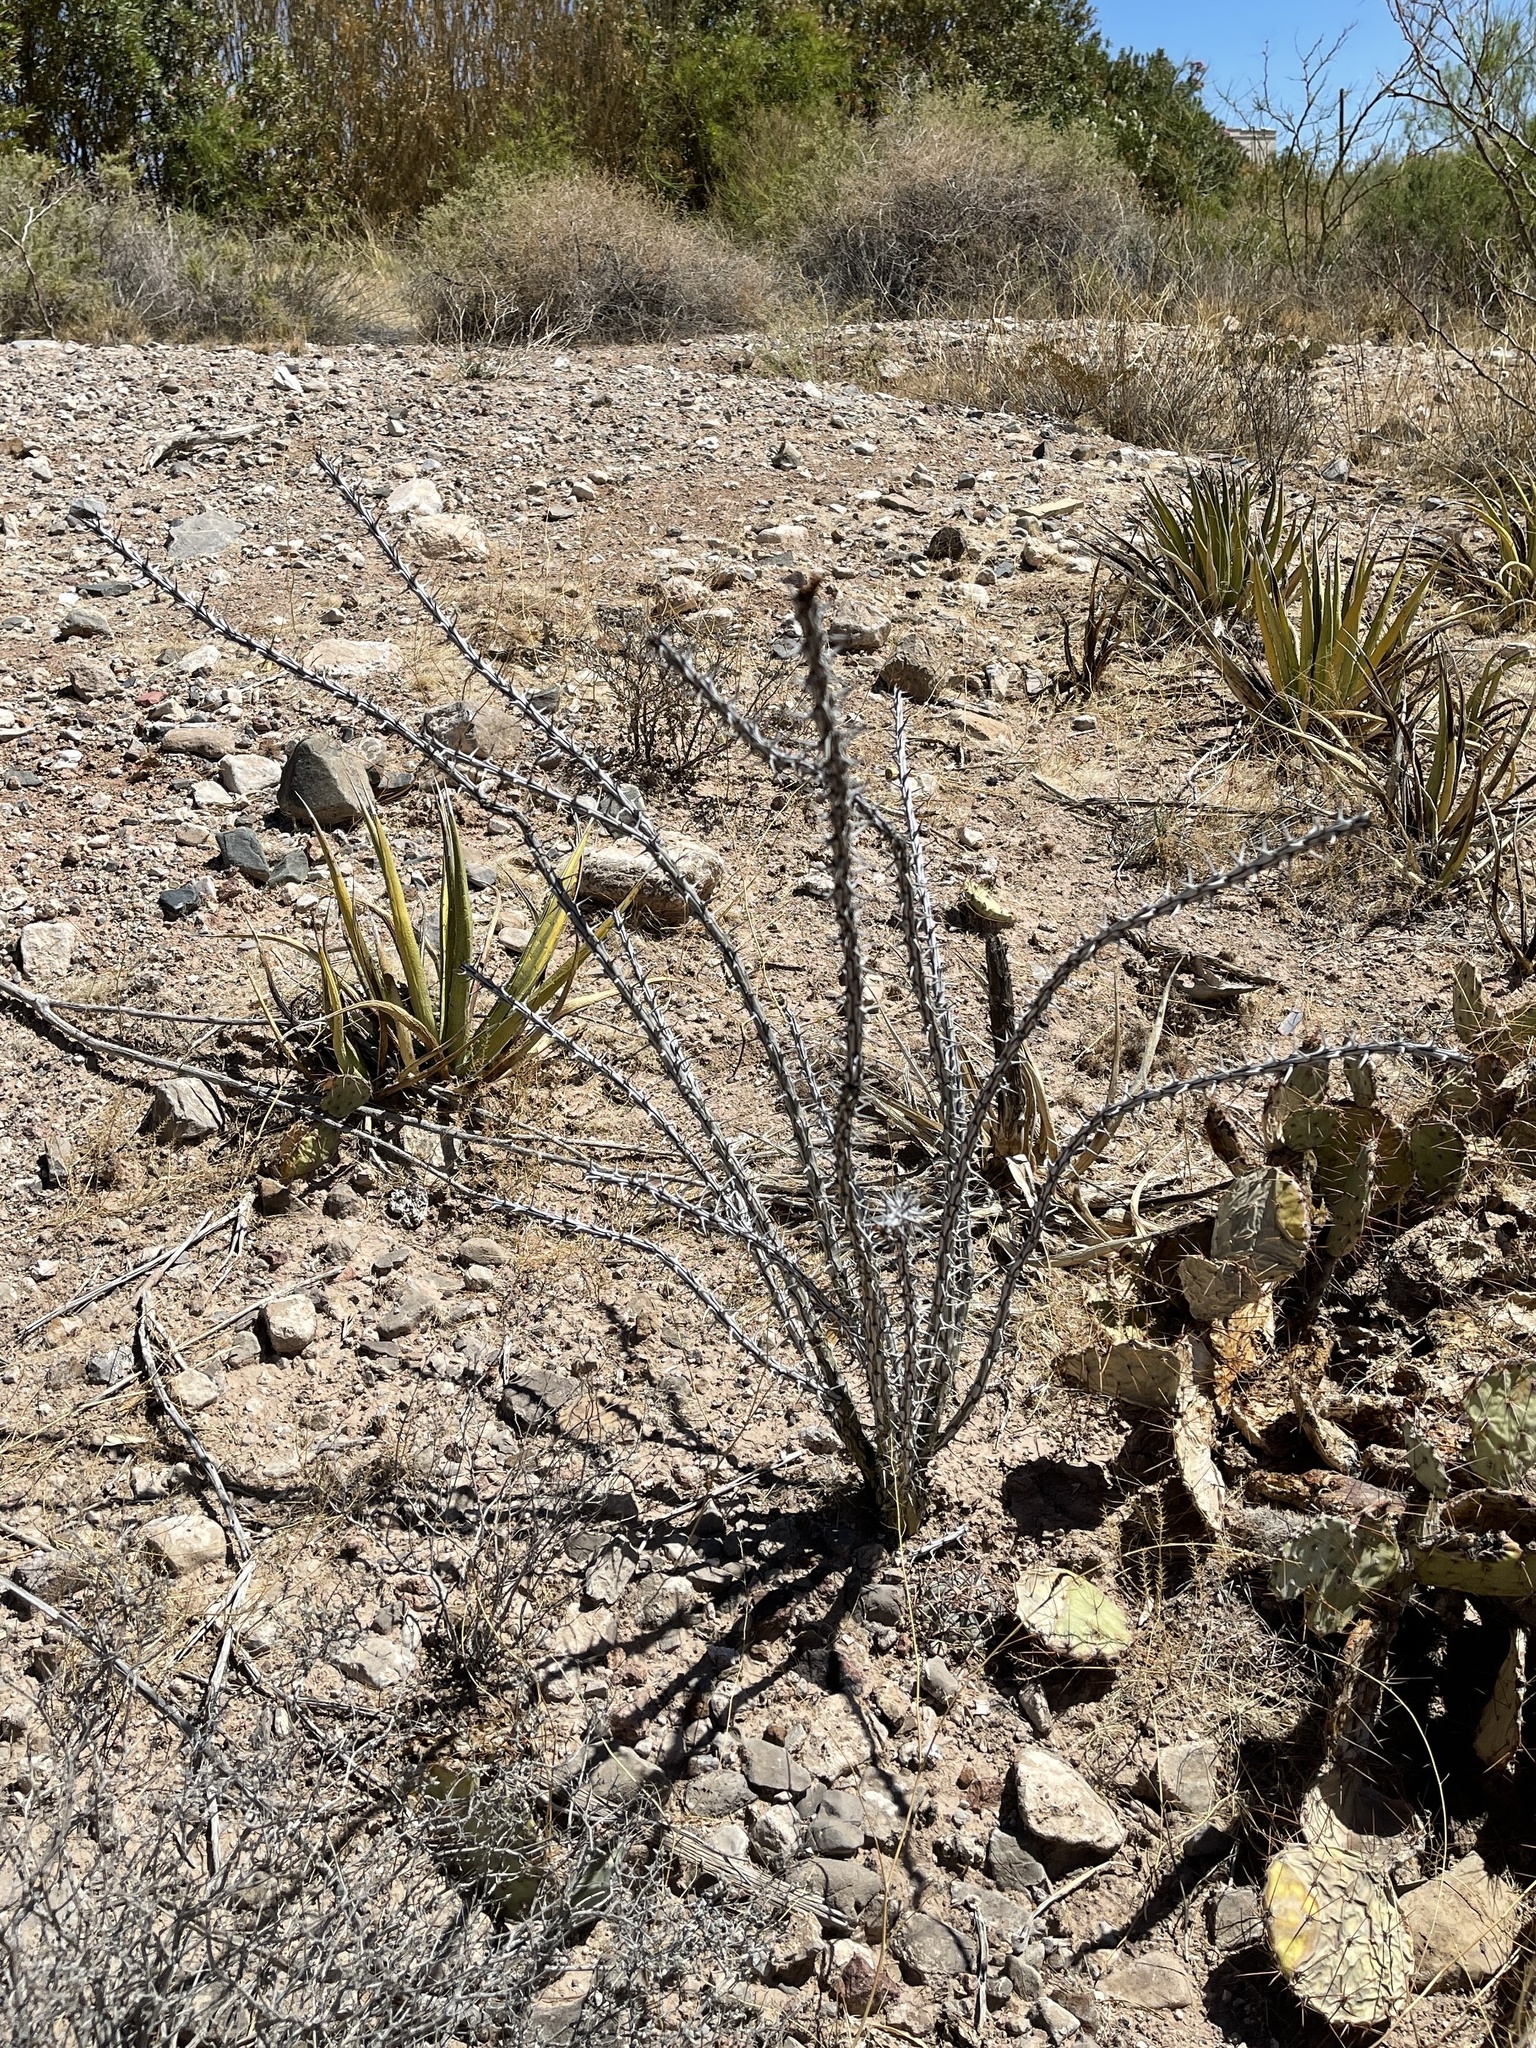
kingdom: Plantae
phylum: Tracheophyta
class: Magnoliopsida
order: Ericales
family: Fouquieriaceae
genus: Fouquieria
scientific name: Fouquieria splendens
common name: Vine-cactus
